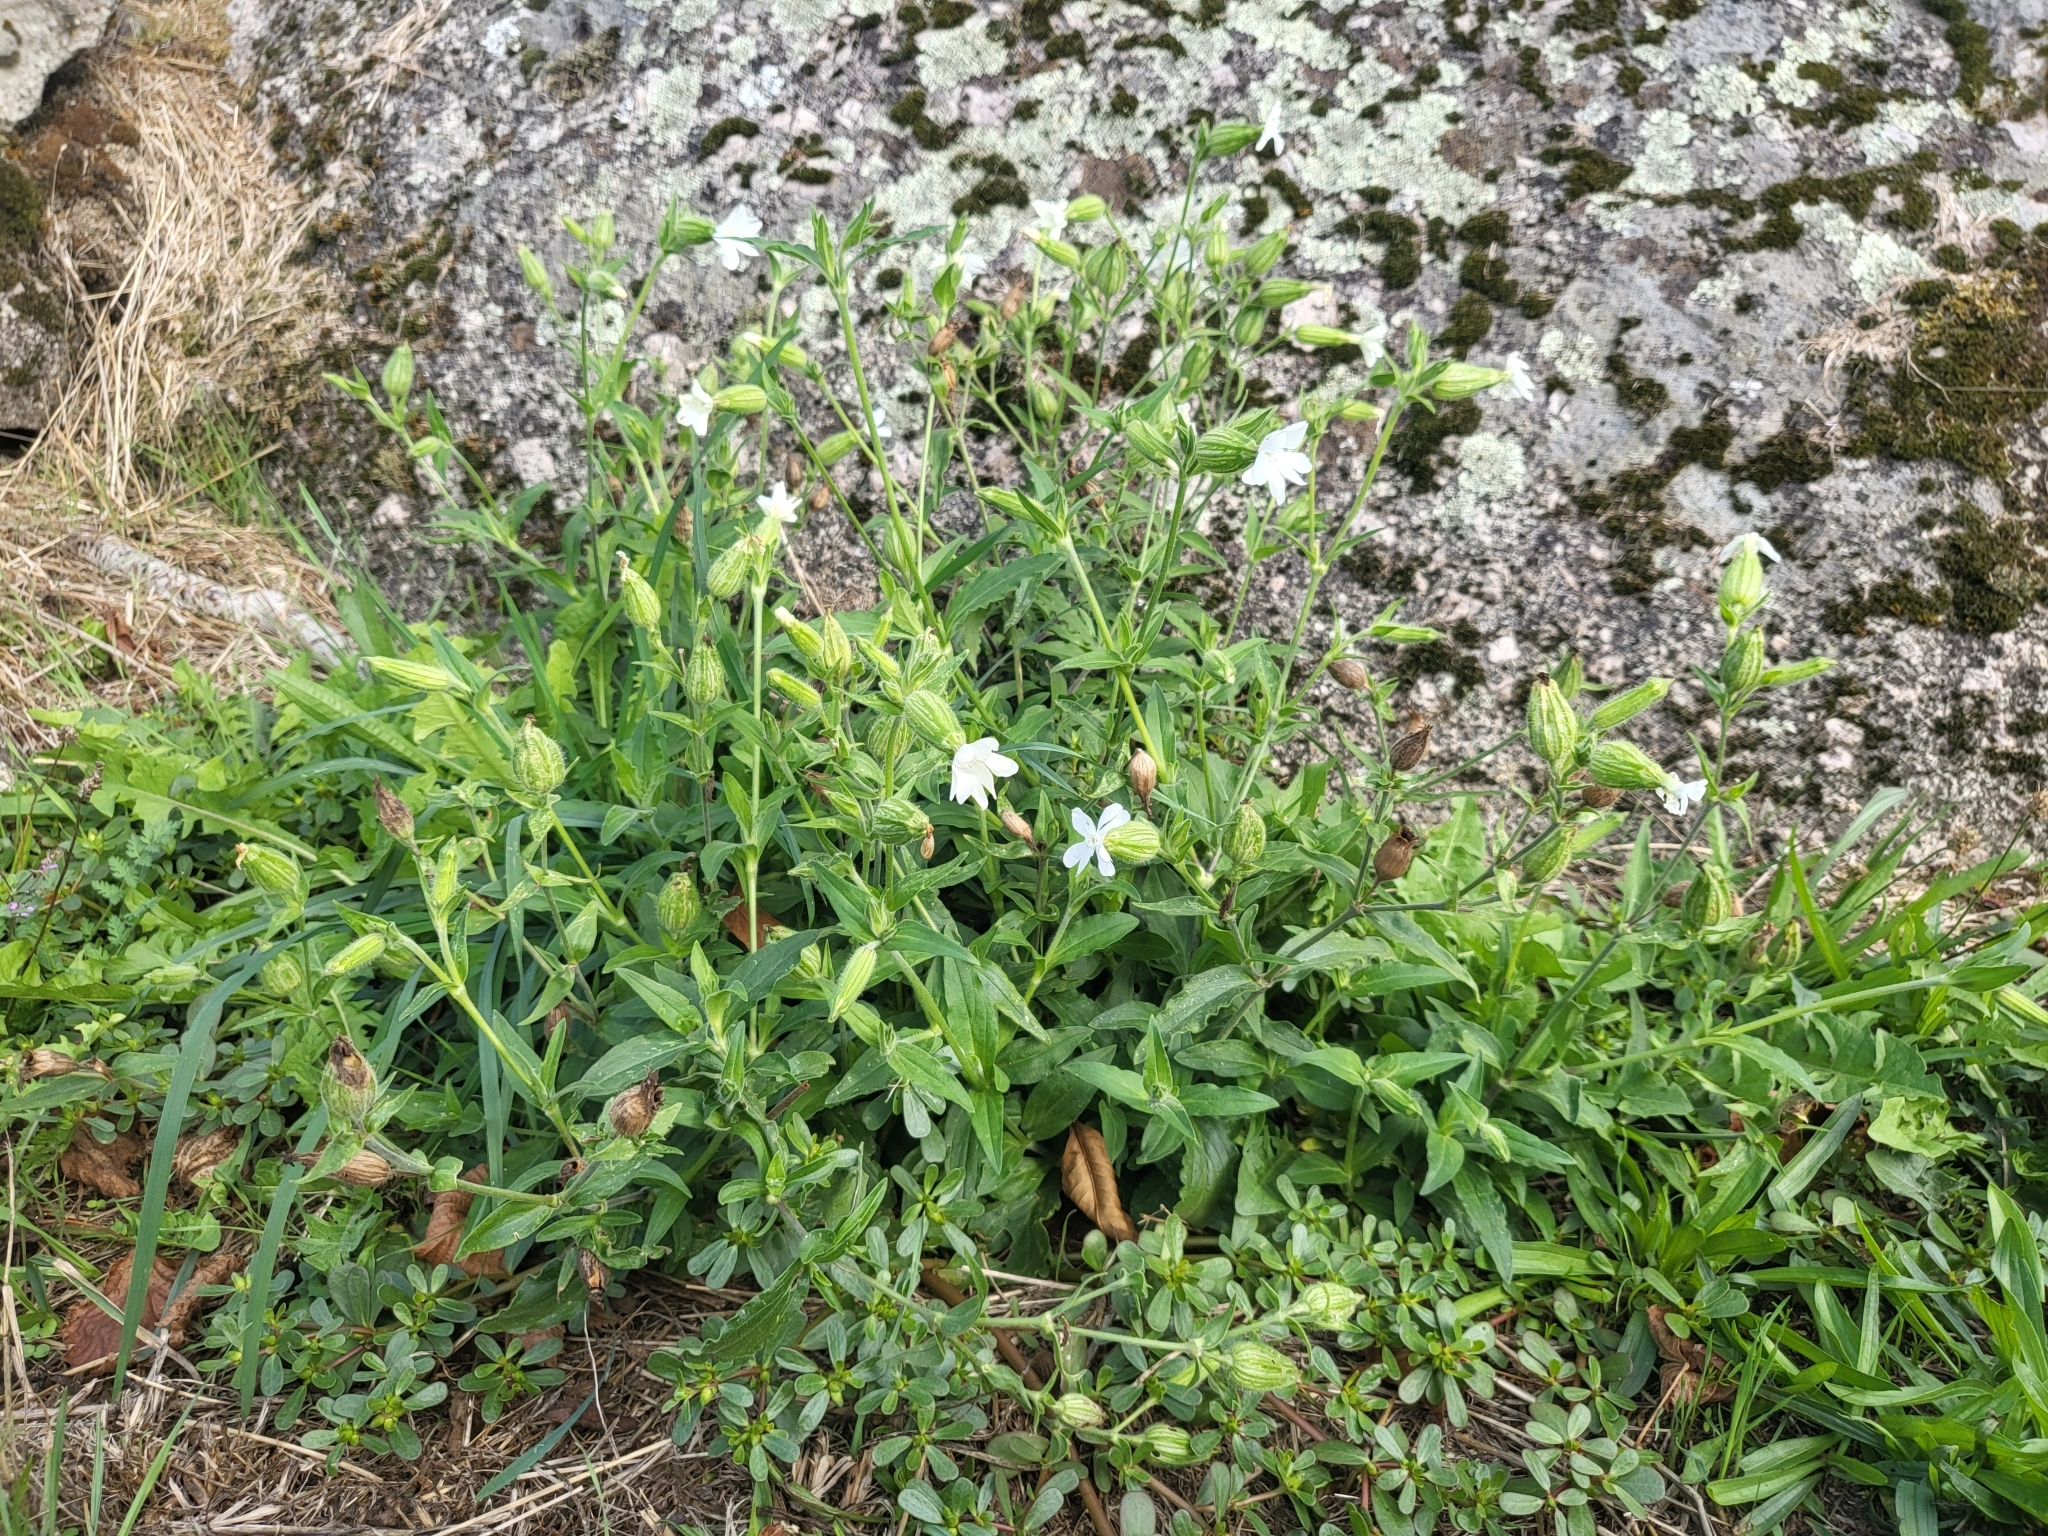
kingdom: Plantae
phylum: Tracheophyta
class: Magnoliopsida
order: Caryophyllales
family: Caryophyllaceae
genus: Silene
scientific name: Silene latifolia
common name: White campion
